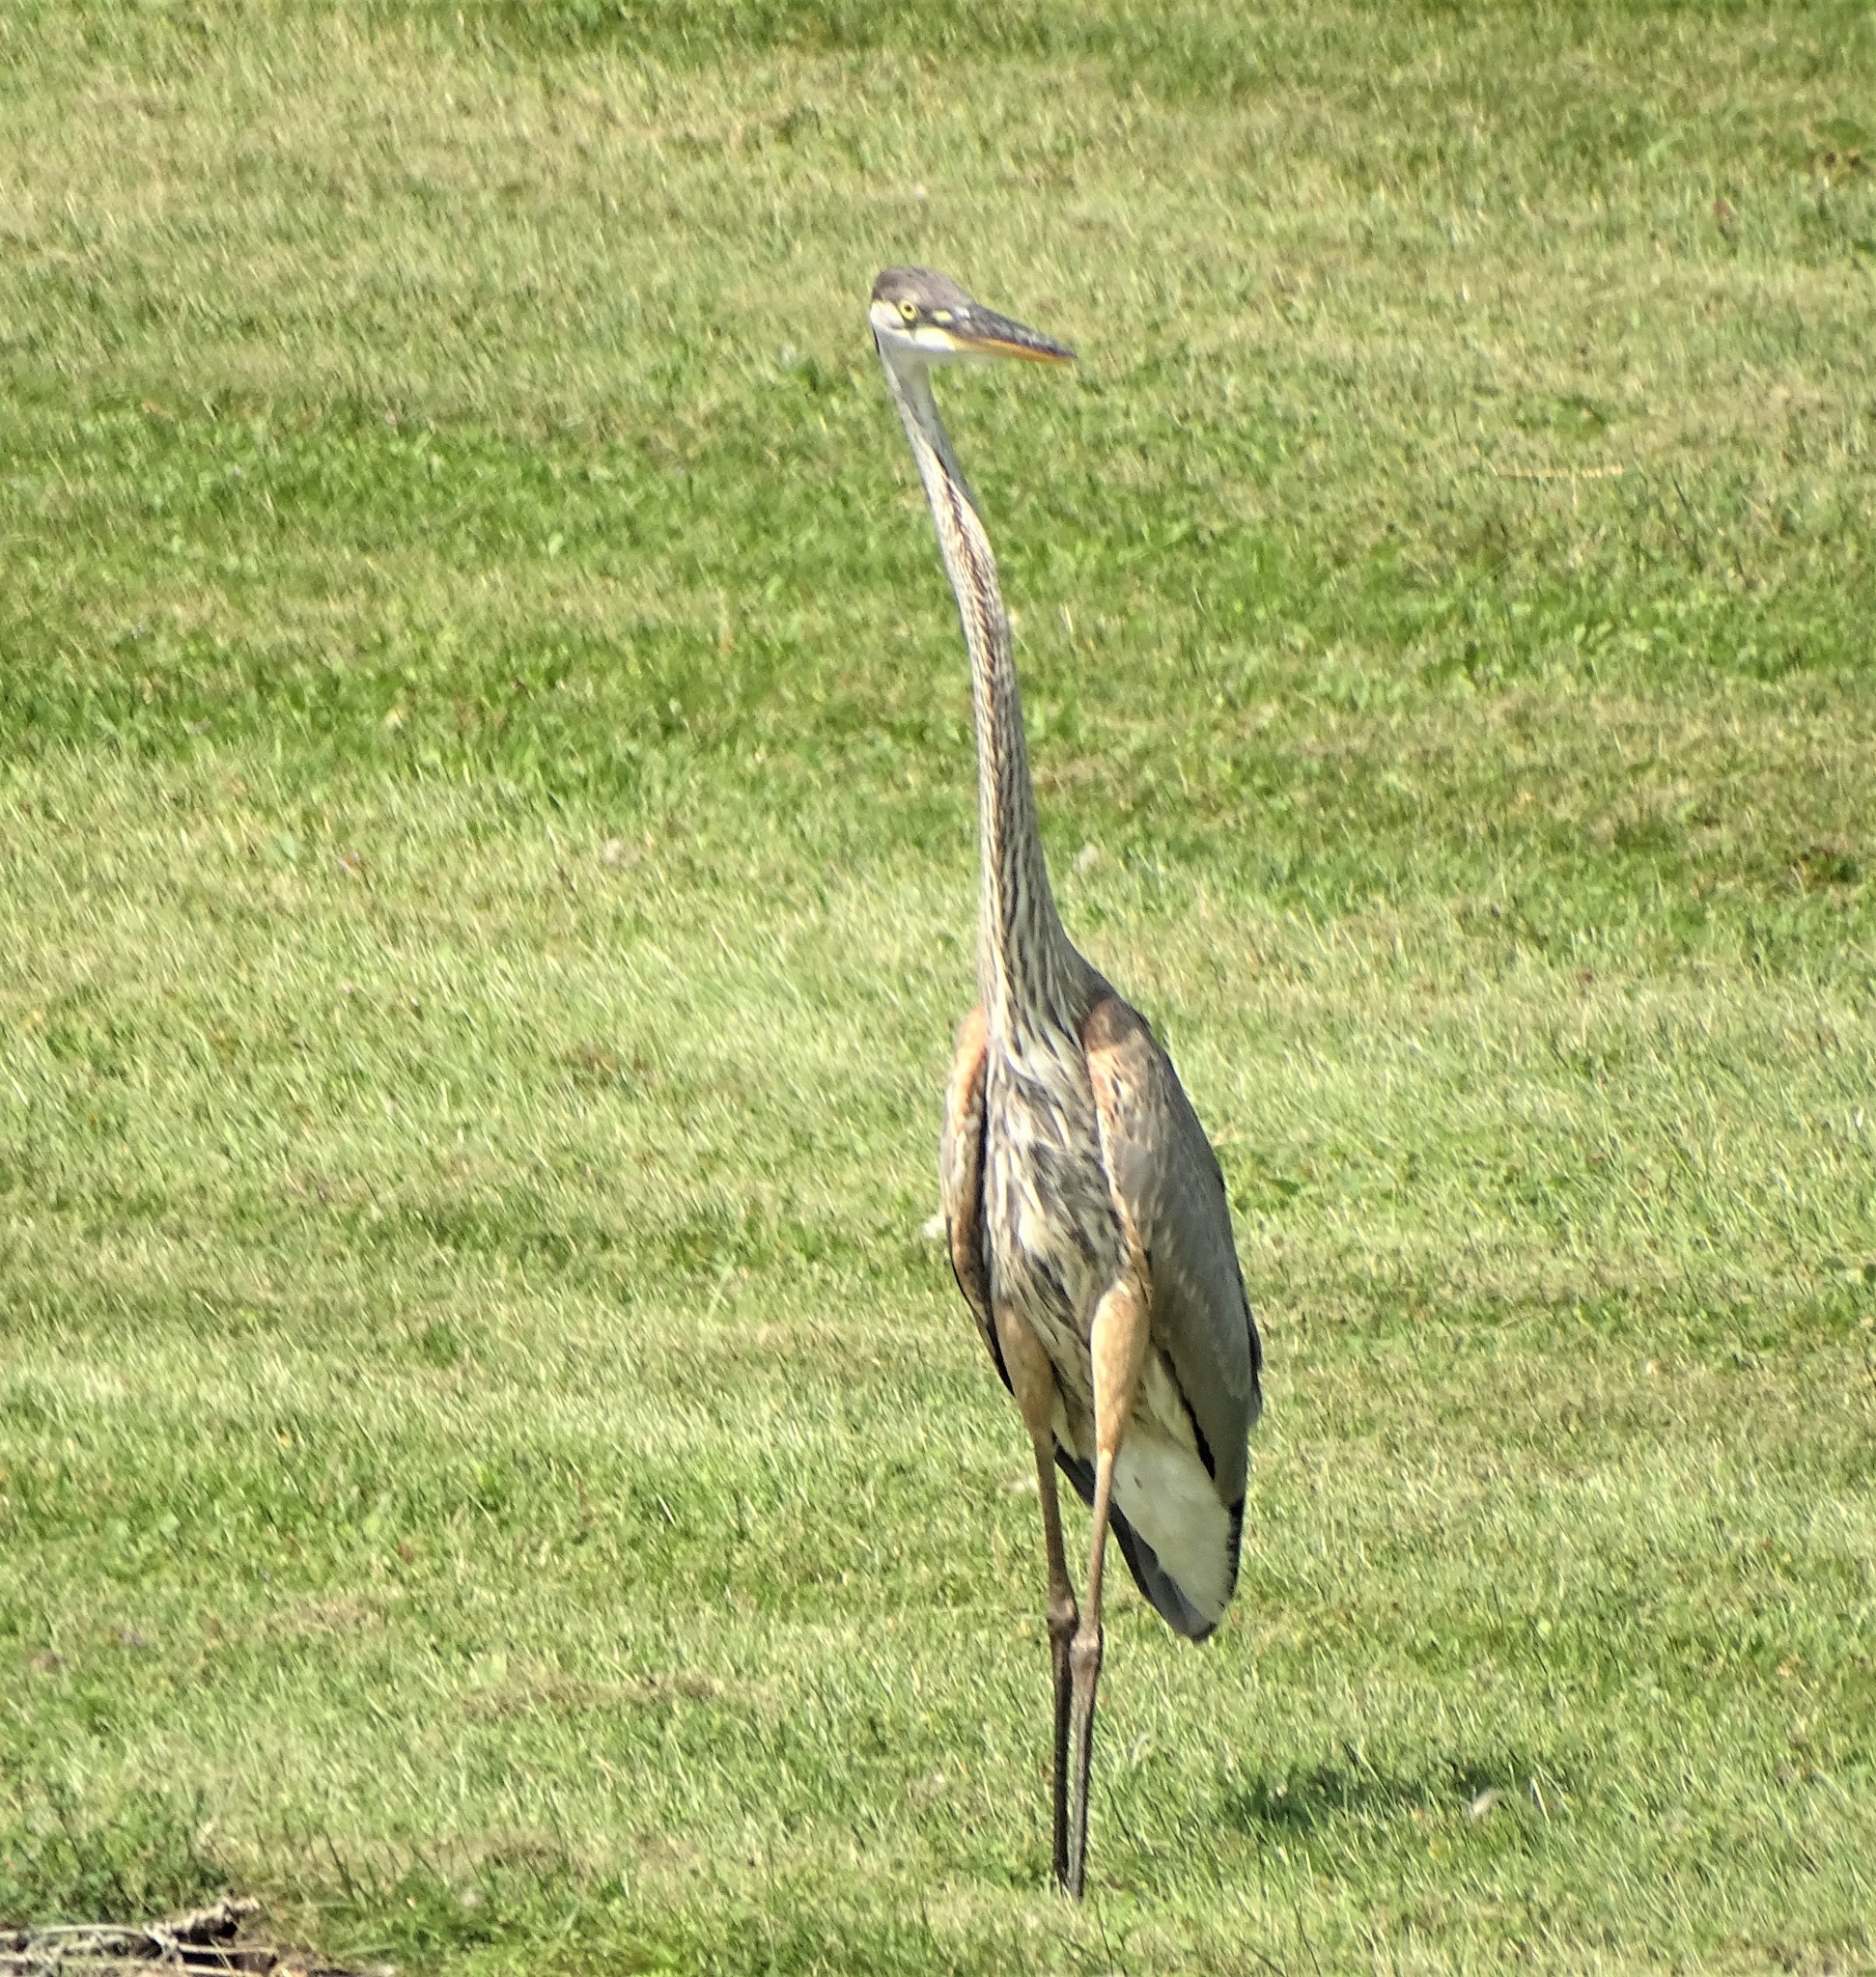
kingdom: Animalia
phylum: Chordata
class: Aves
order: Pelecaniformes
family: Ardeidae
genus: Ardea
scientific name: Ardea herodias
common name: Great blue heron
